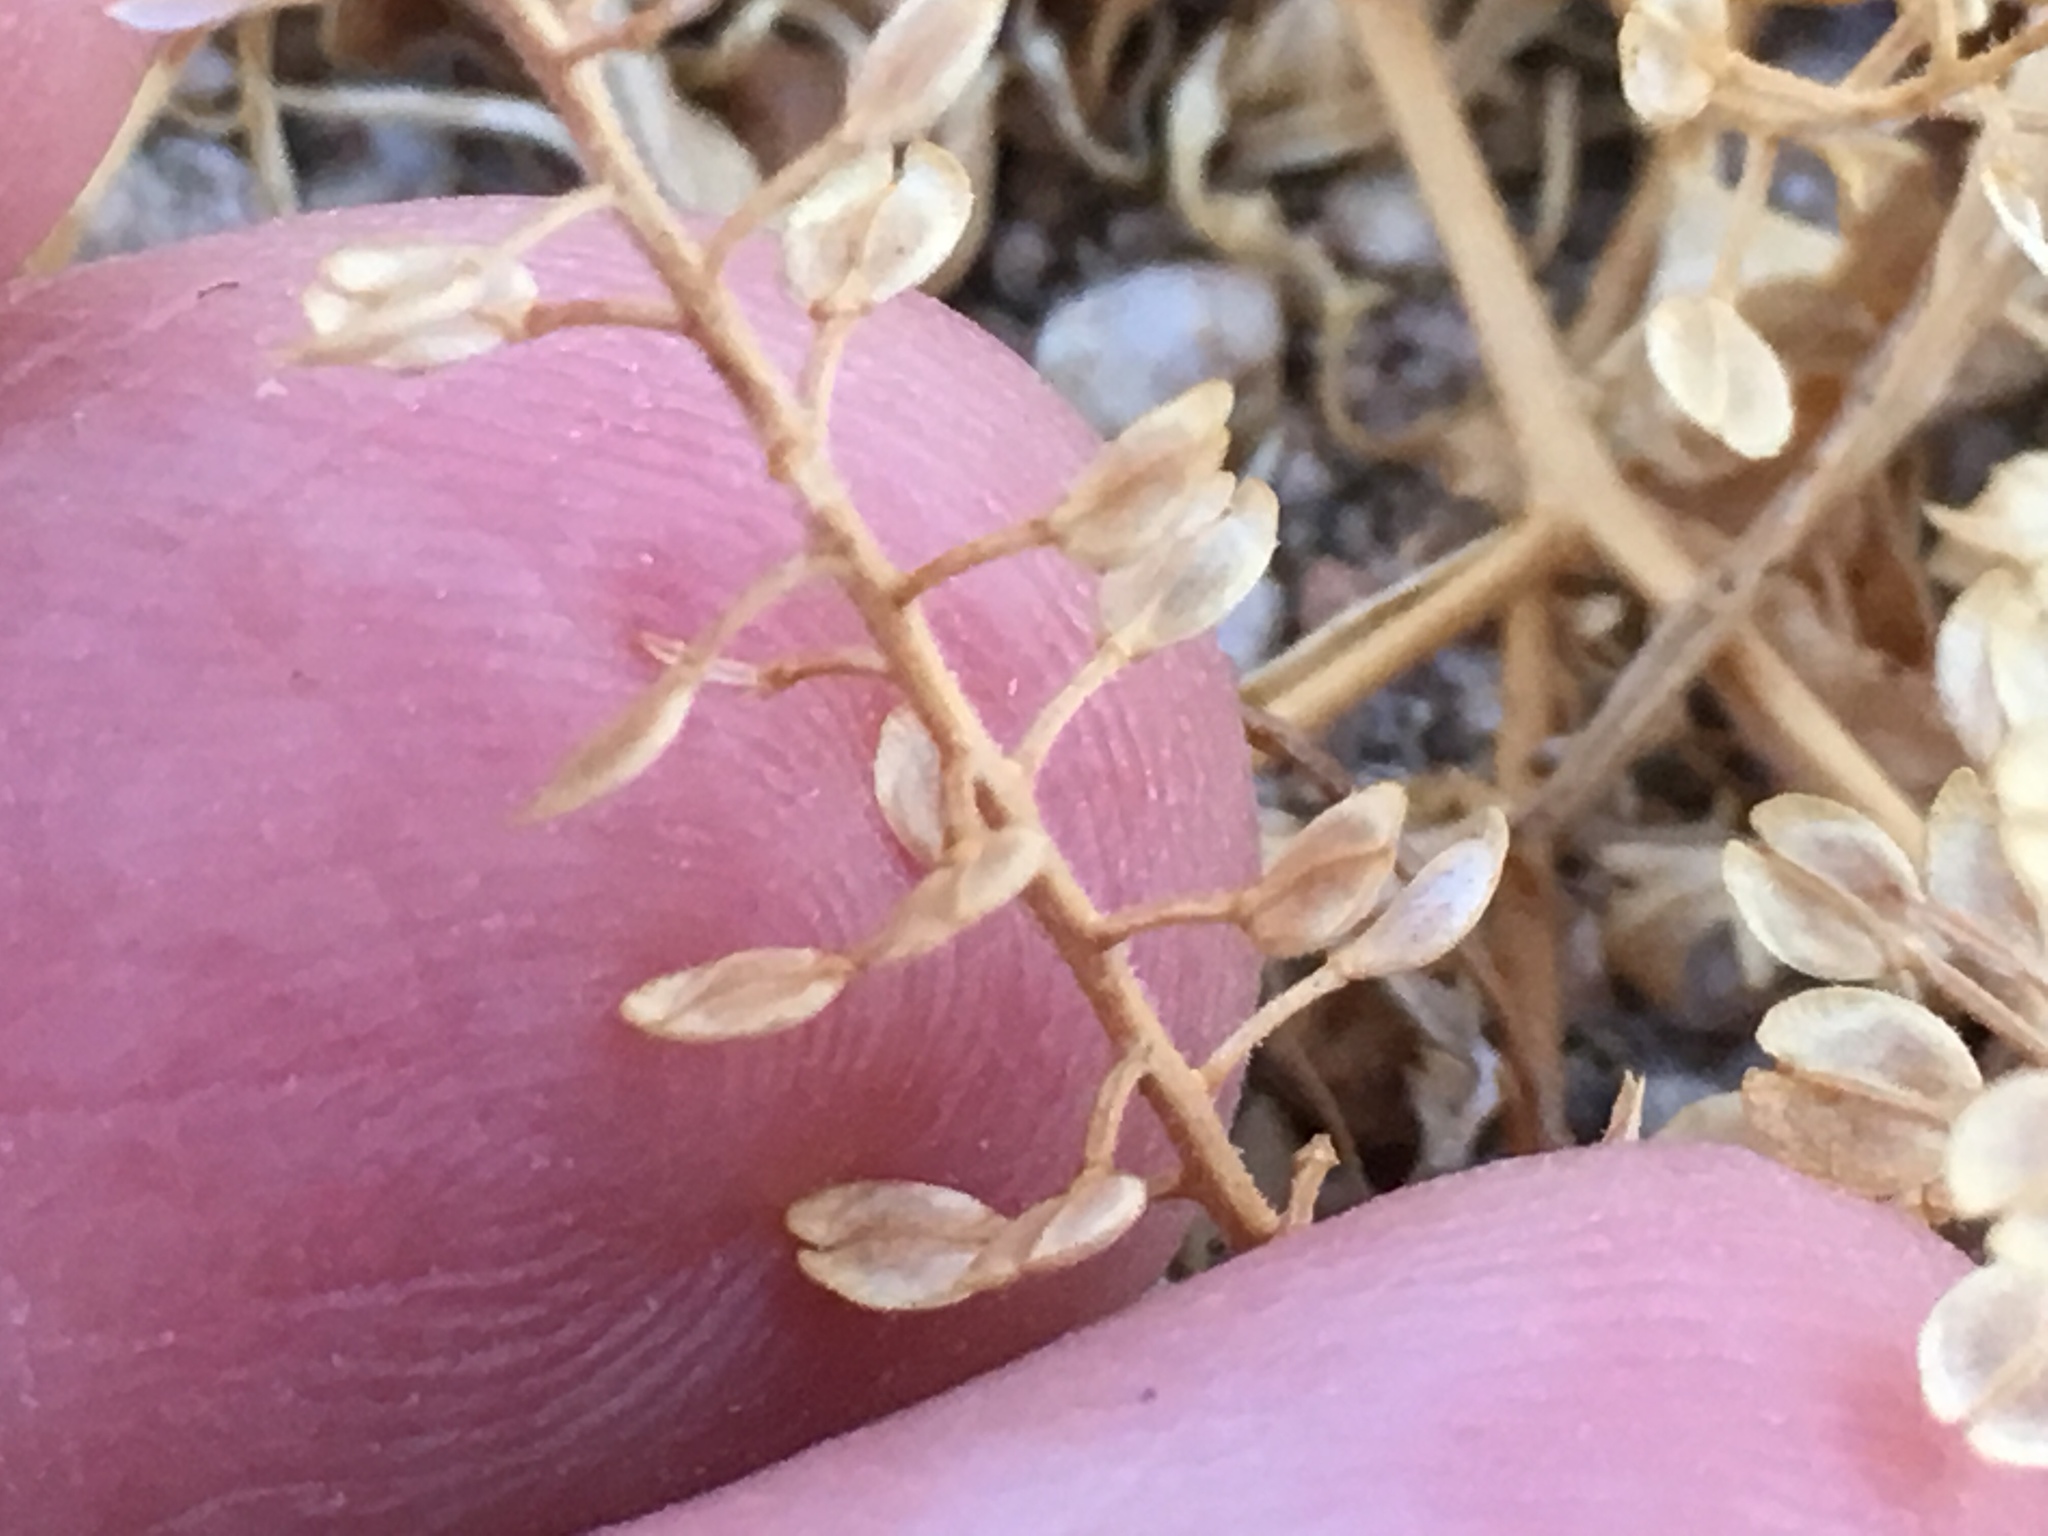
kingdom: Plantae
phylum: Tracheophyta
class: Magnoliopsida
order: Brassicales
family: Brassicaceae
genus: Lepidium
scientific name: Lepidium lasiocarpum
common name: Hairy-pod pepperwort
